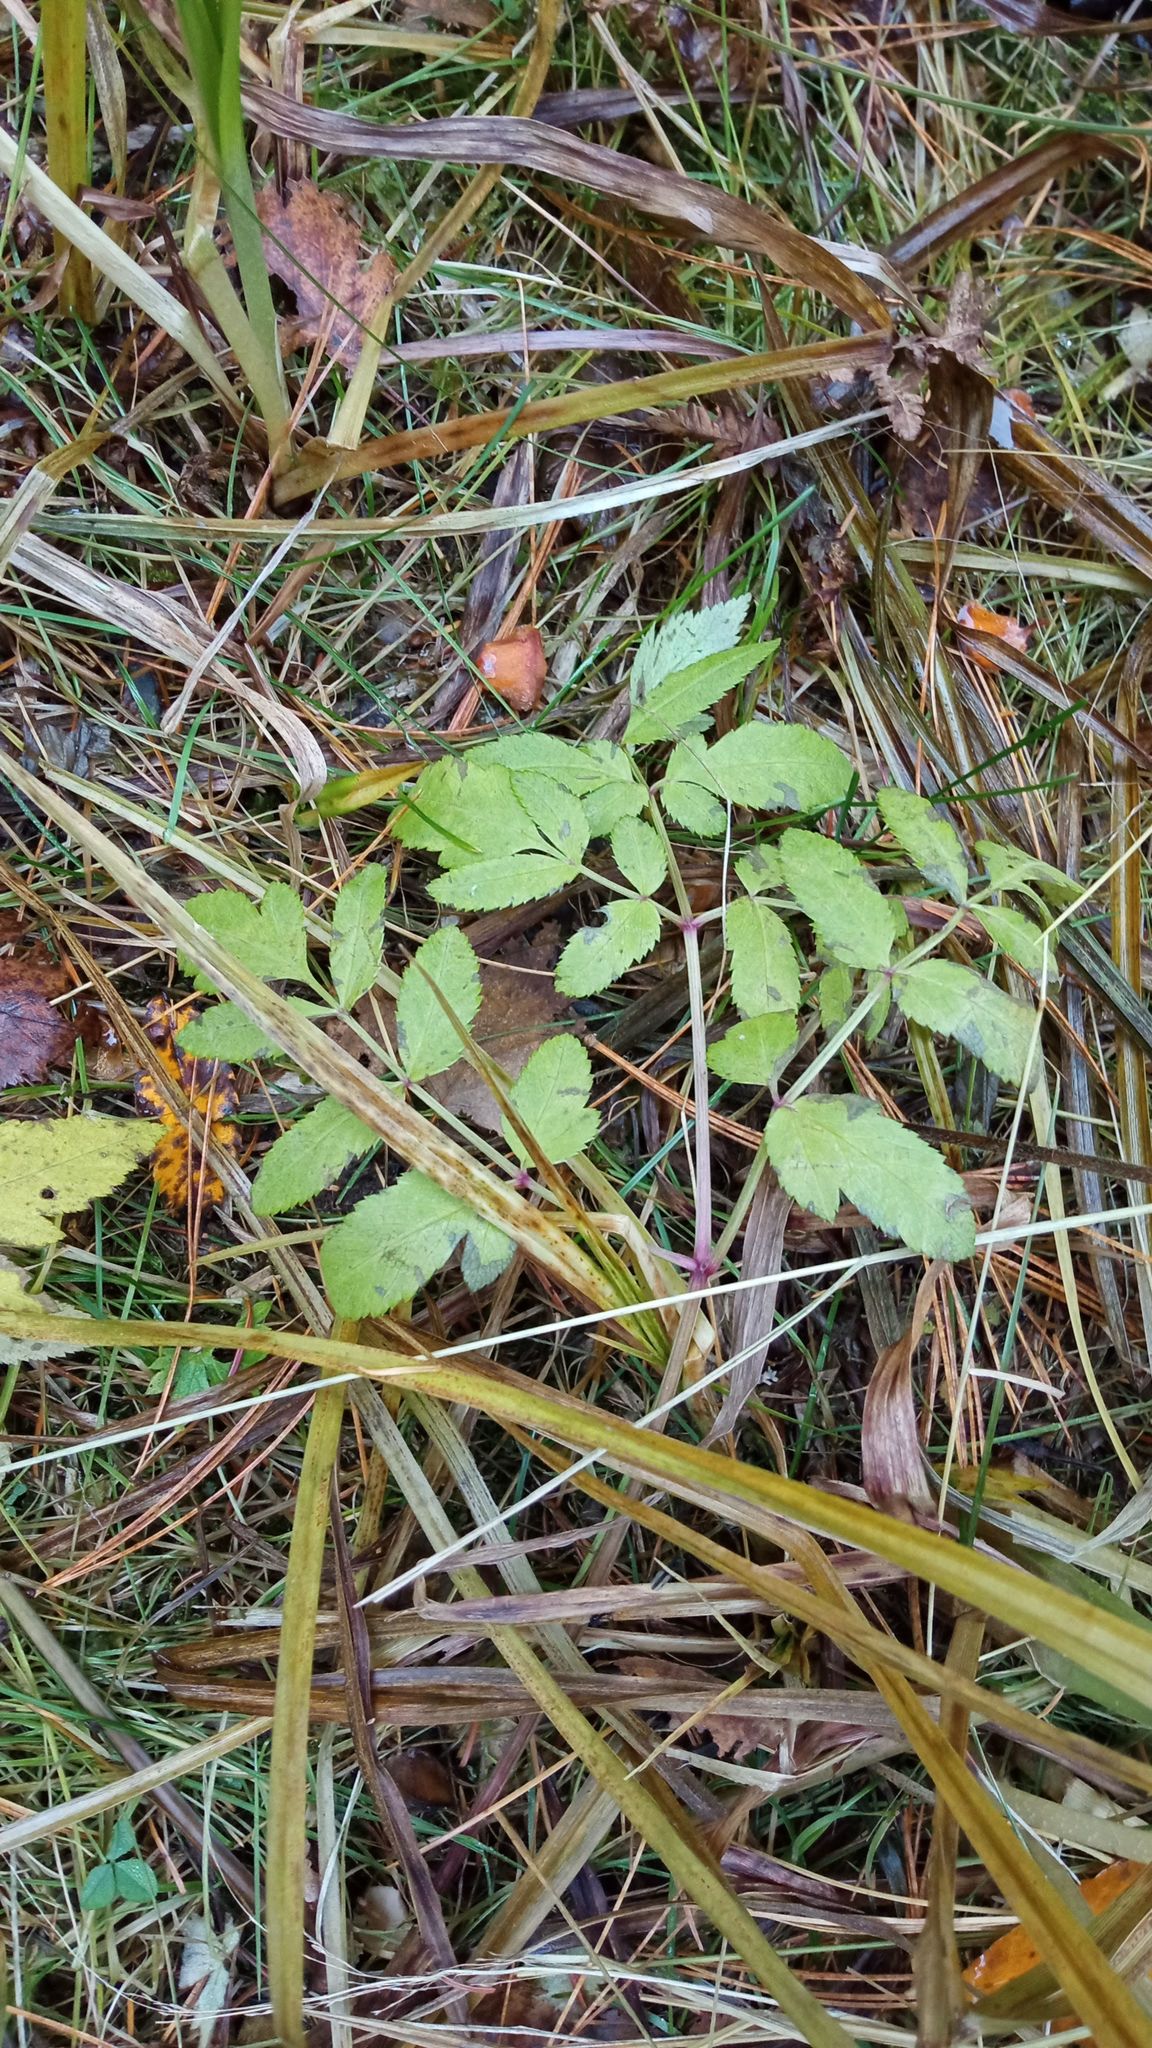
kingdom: Plantae
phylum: Tracheophyta
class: Magnoliopsida
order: Apiales
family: Apiaceae
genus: Angelica
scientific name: Angelica sylvestris
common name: Wild angelica
